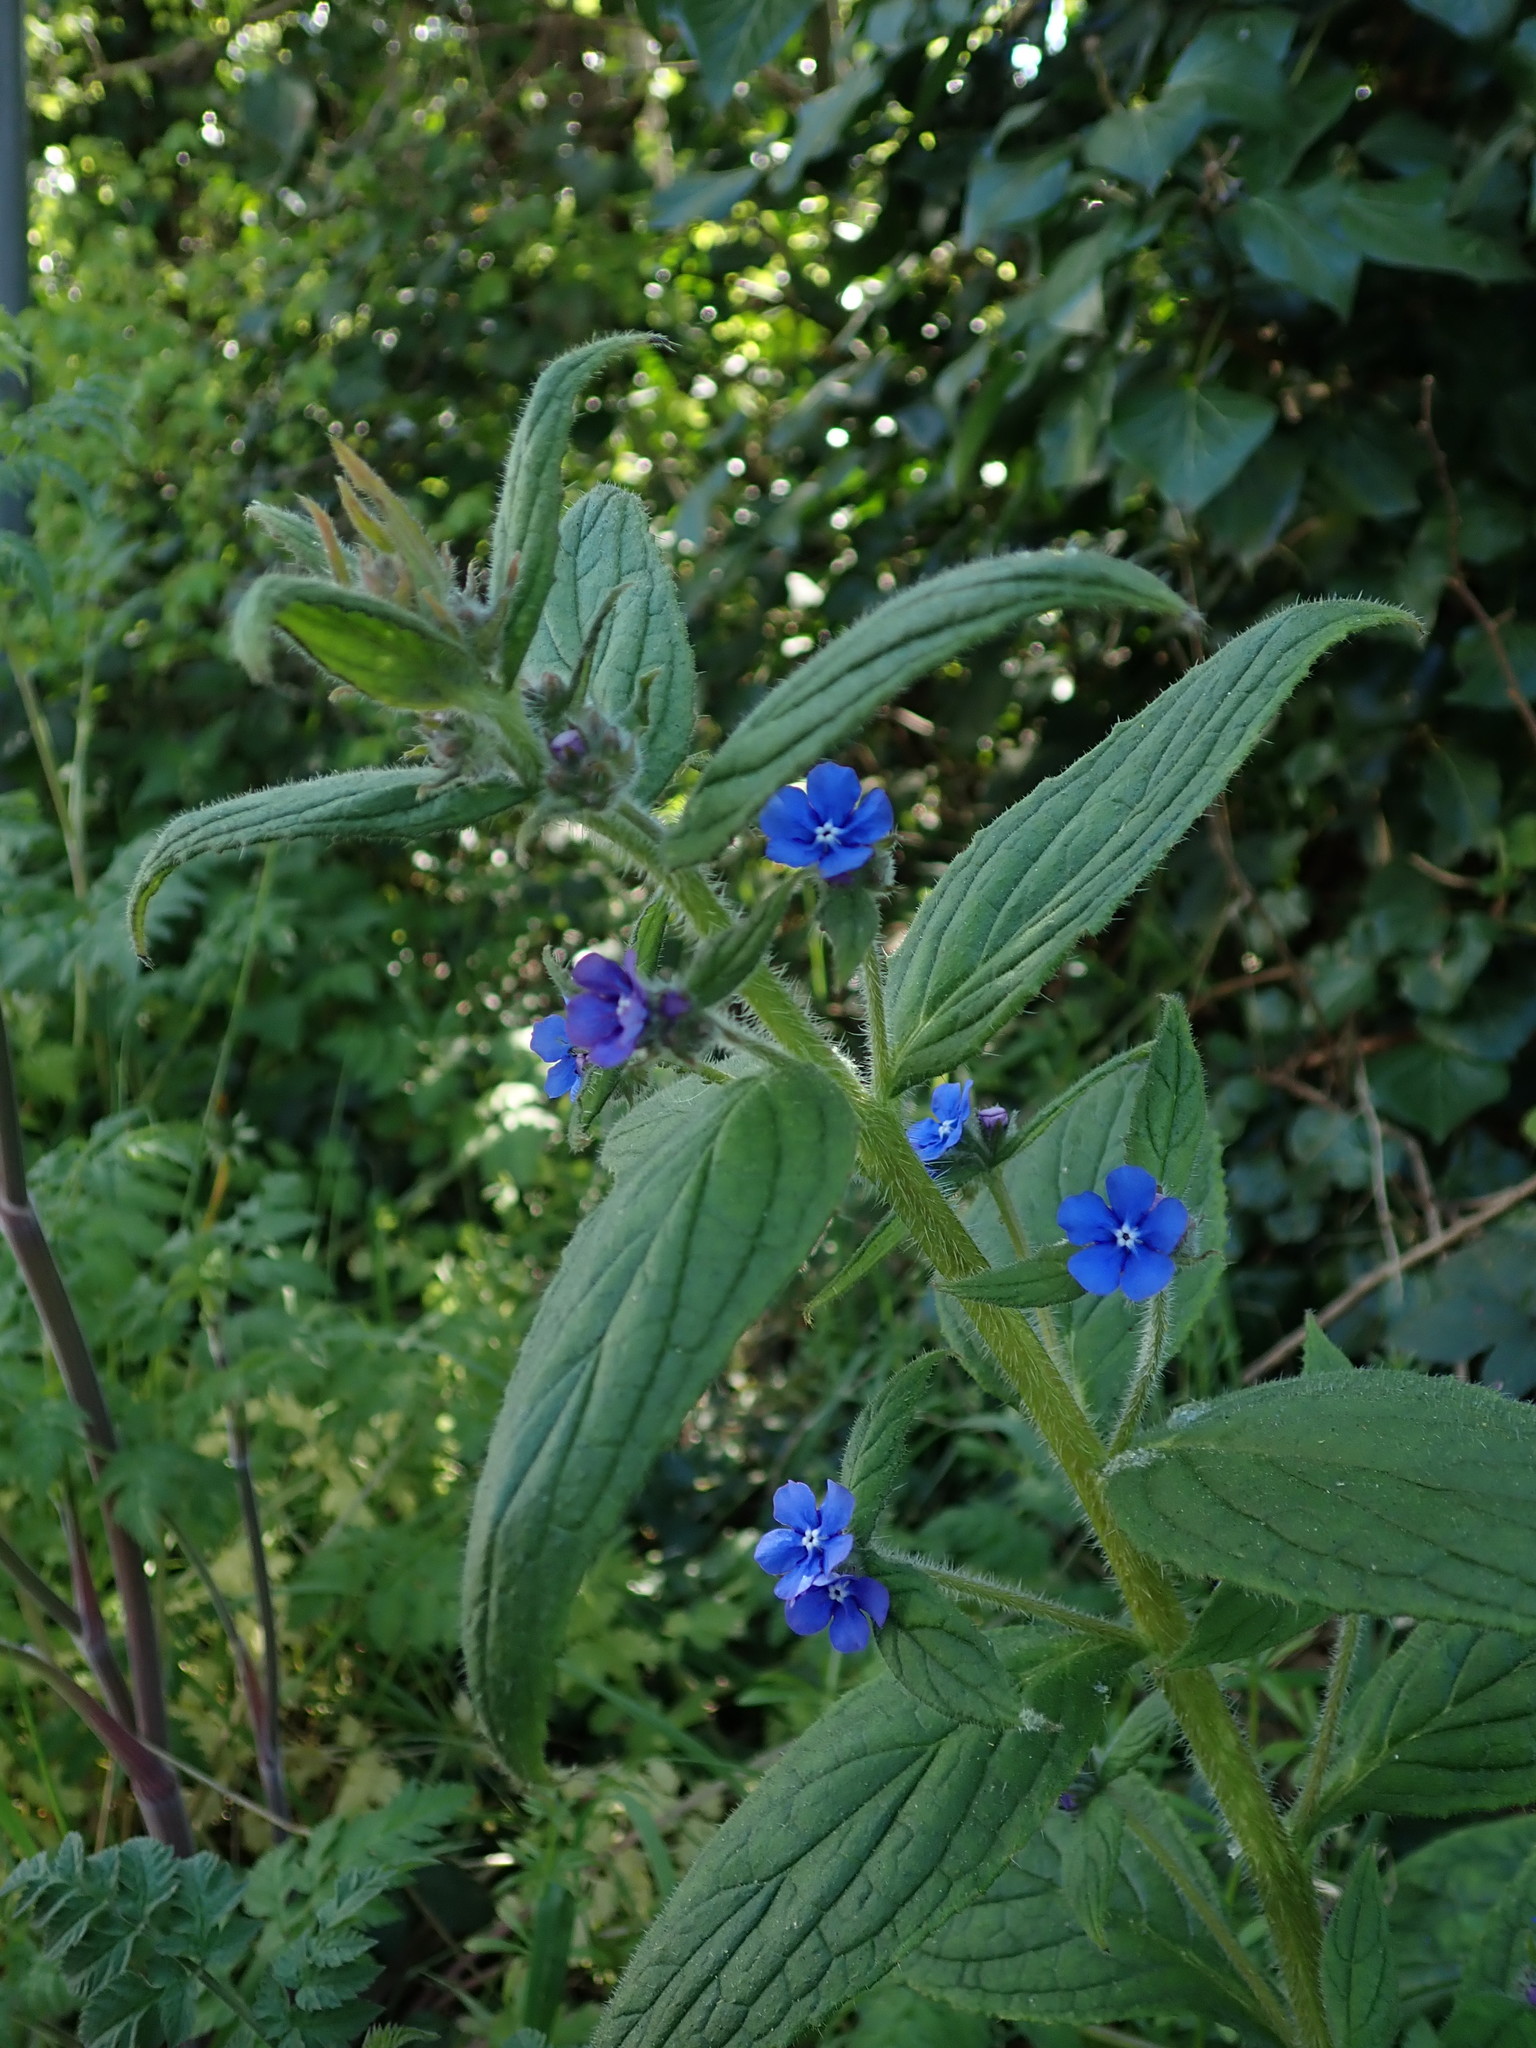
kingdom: Plantae
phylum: Tracheophyta
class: Magnoliopsida
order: Boraginales
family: Boraginaceae
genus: Pentaglottis
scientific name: Pentaglottis sempervirens
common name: Green alkanet
